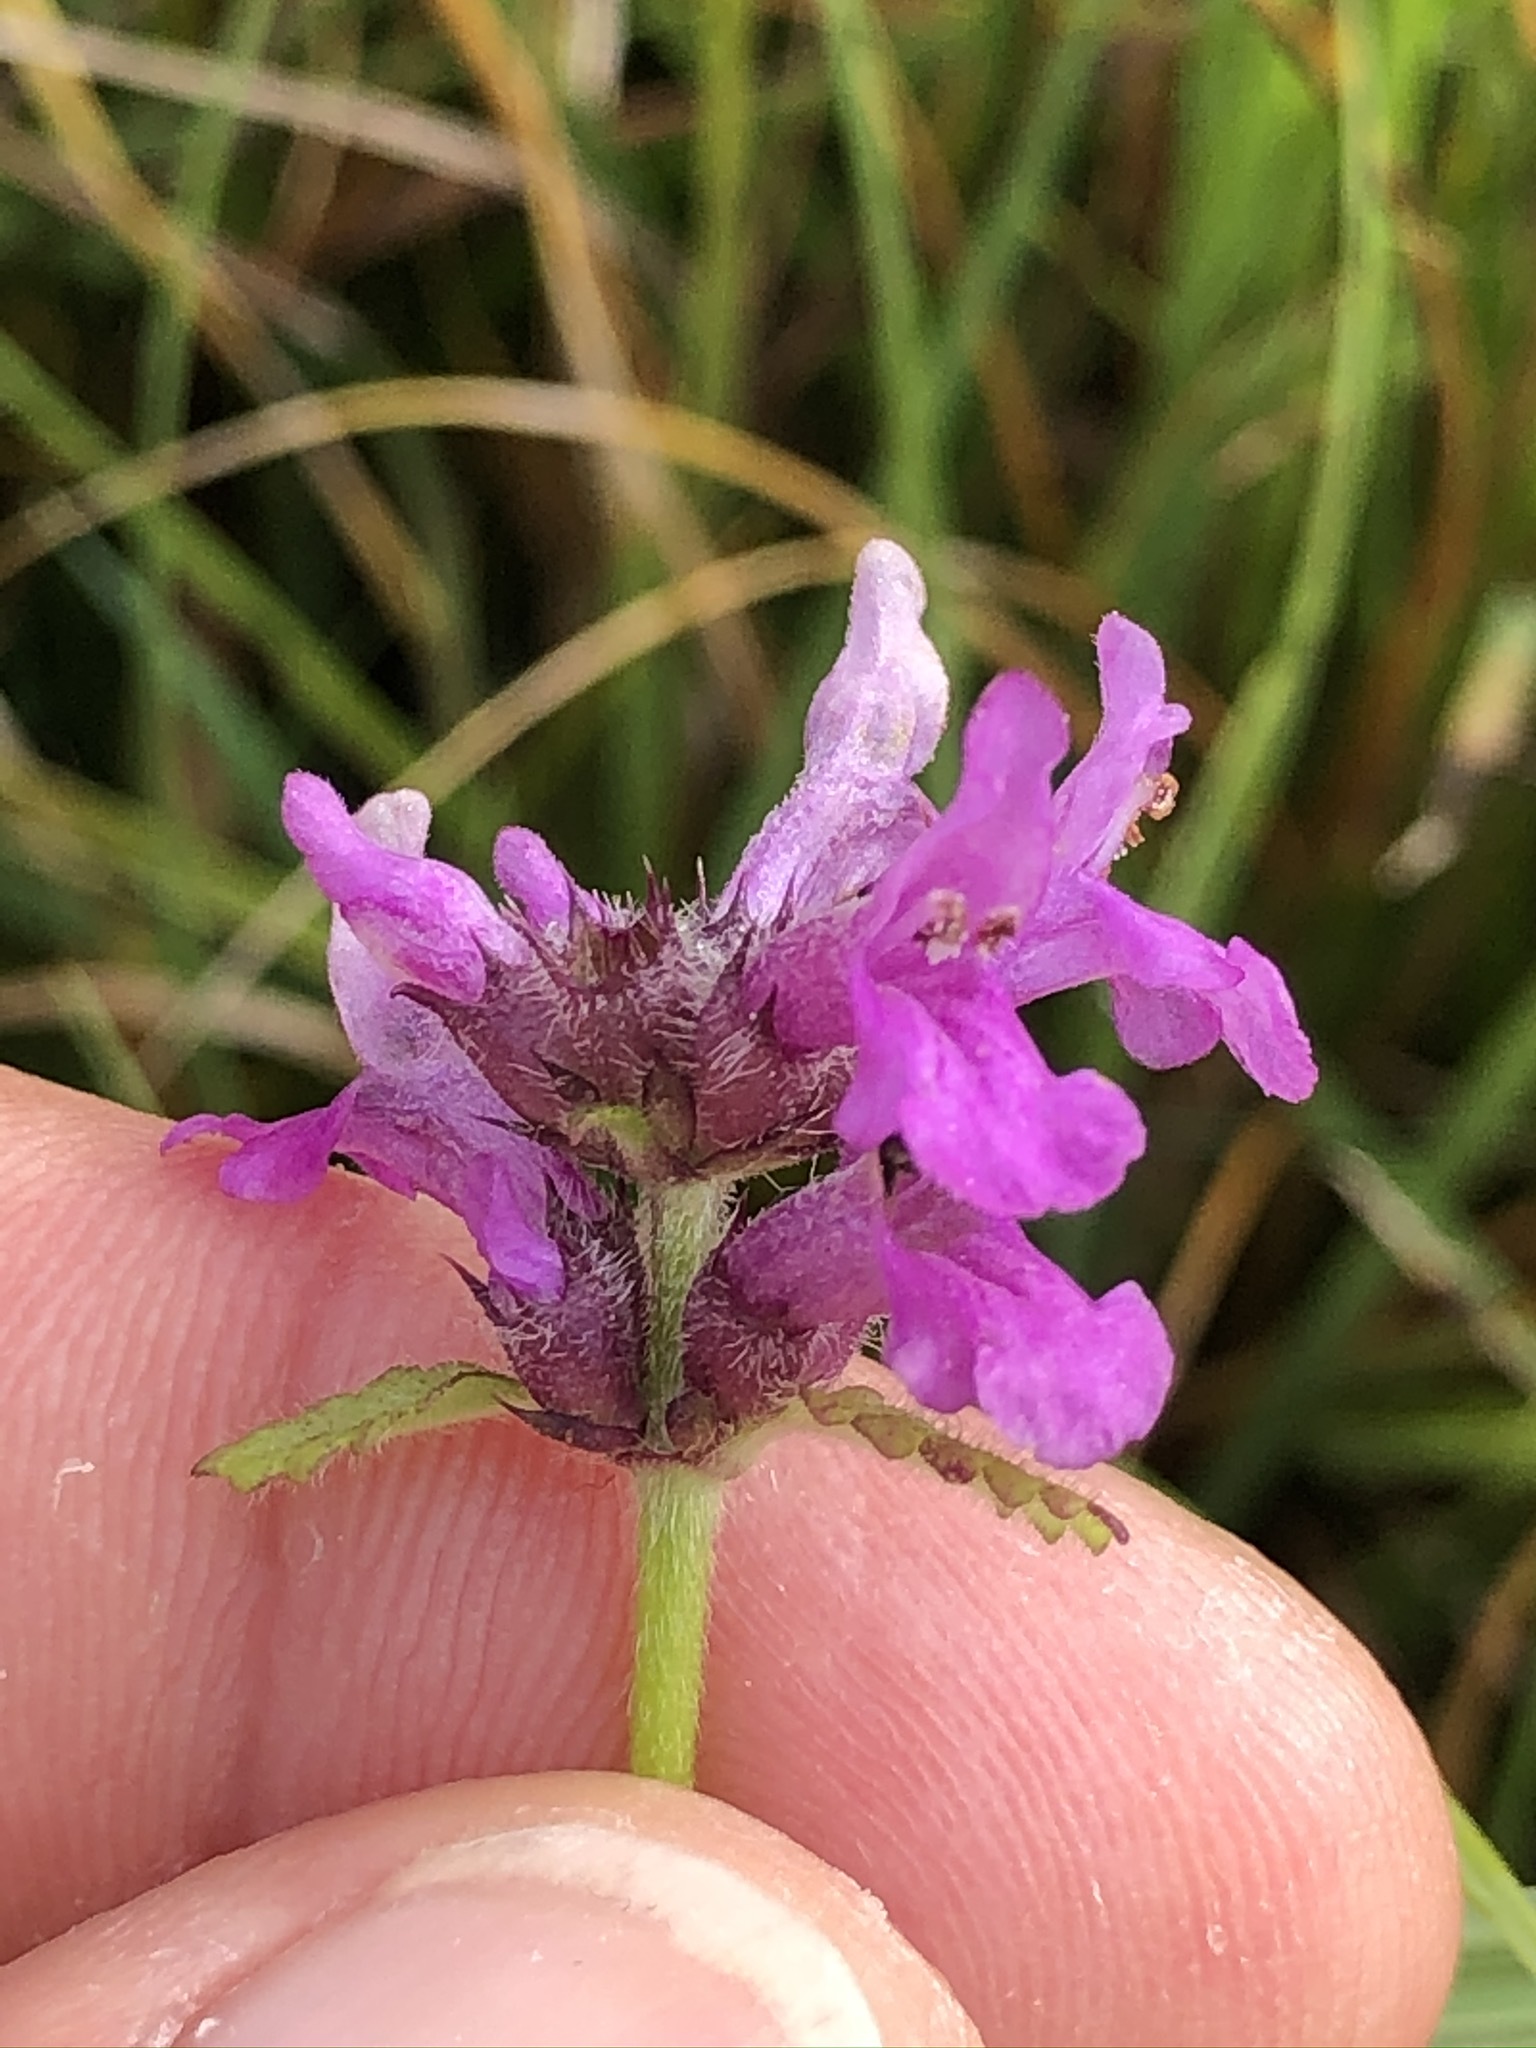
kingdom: Plantae
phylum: Tracheophyta
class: Magnoliopsida
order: Lamiales
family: Lamiaceae
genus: Betonica
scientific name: Betonica officinalis
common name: Bishop's-wort
